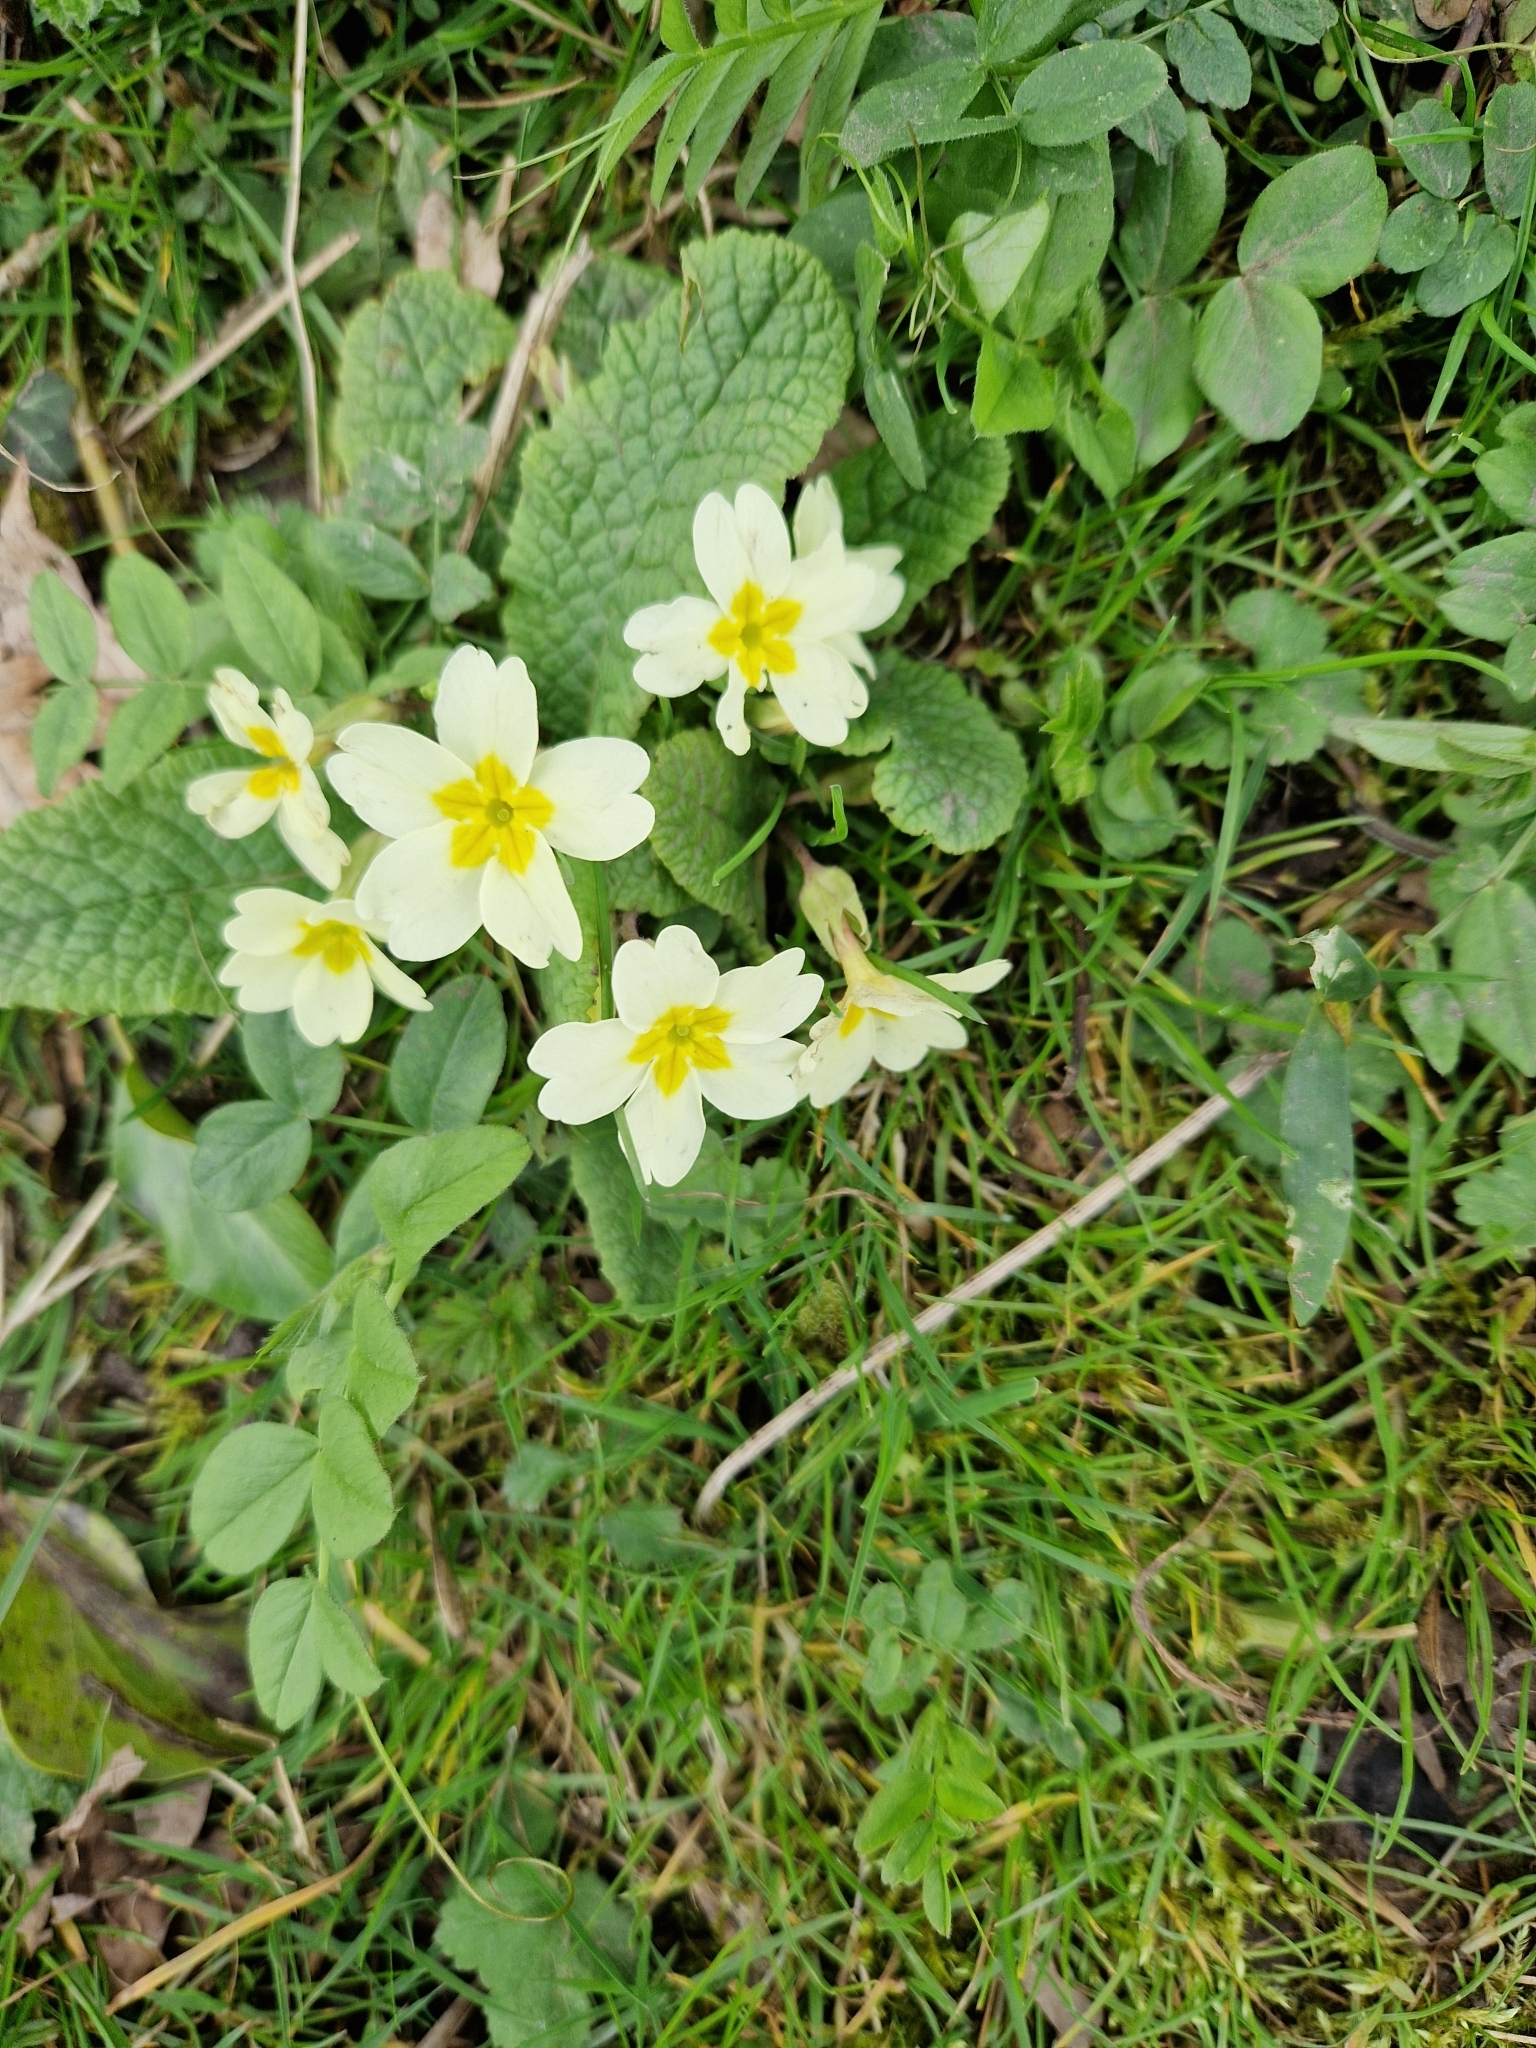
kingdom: Plantae
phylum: Tracheophyta
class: Magnoliopsida
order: Ericales
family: Primulaceae
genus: Primula
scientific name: Primula vulgaris
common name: Primrose
